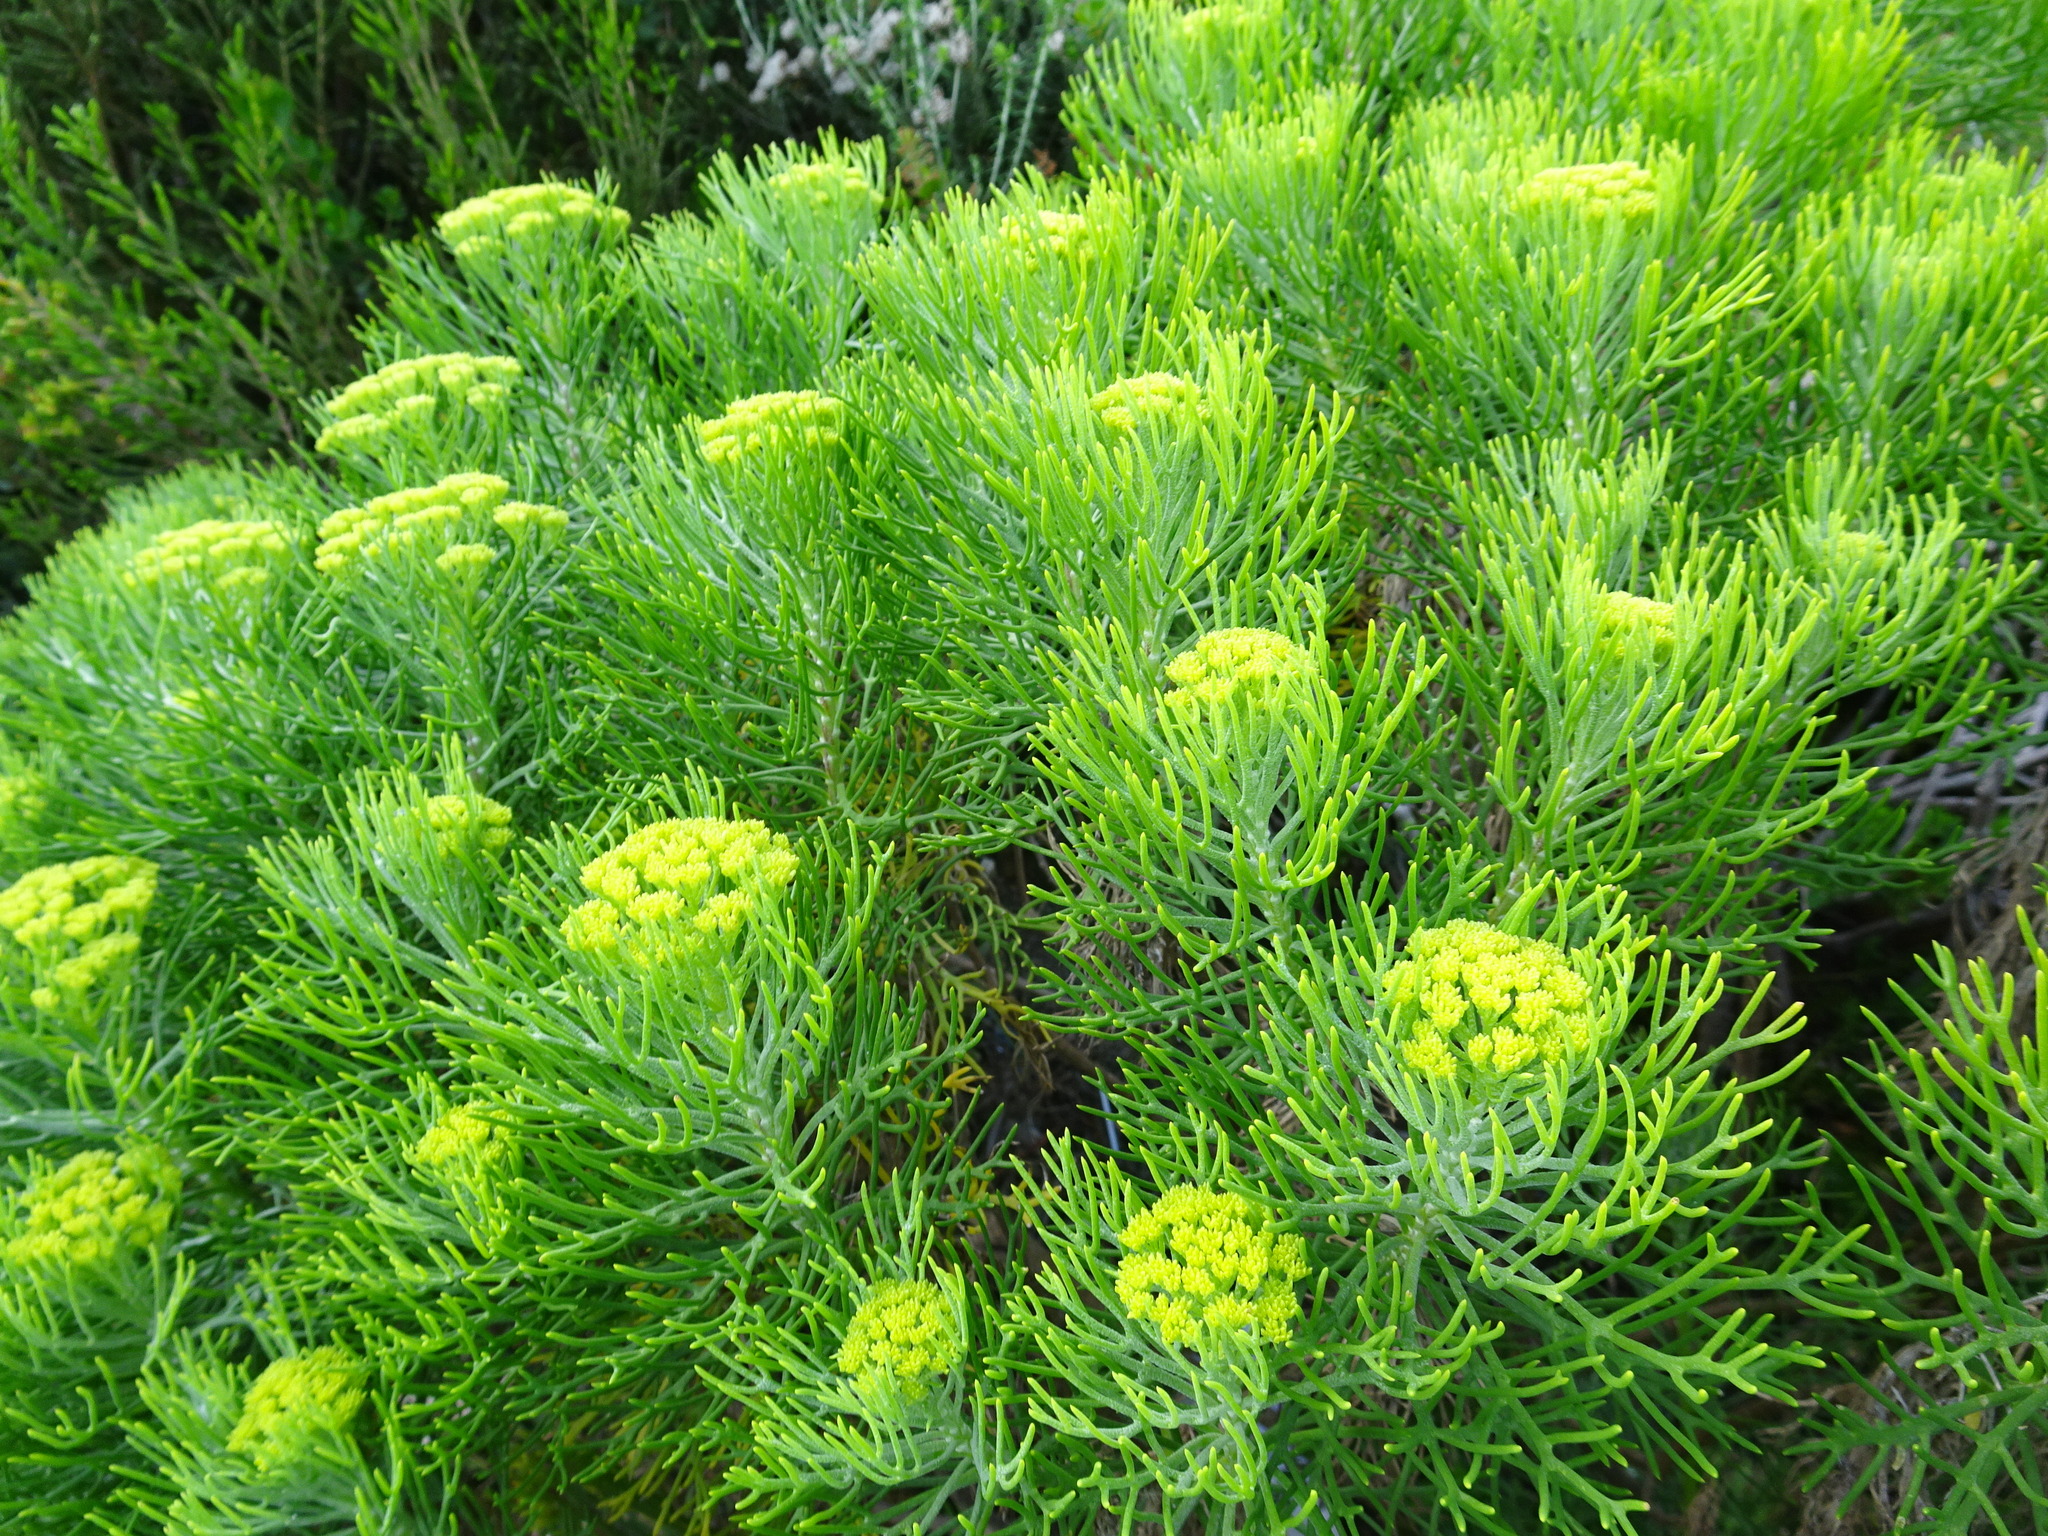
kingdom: Plantae
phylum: Tracheophyta
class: Magnoliopsida
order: Asterales
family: Asteraceae
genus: Hymenolepis
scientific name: Hymenolepis crithmifolia
